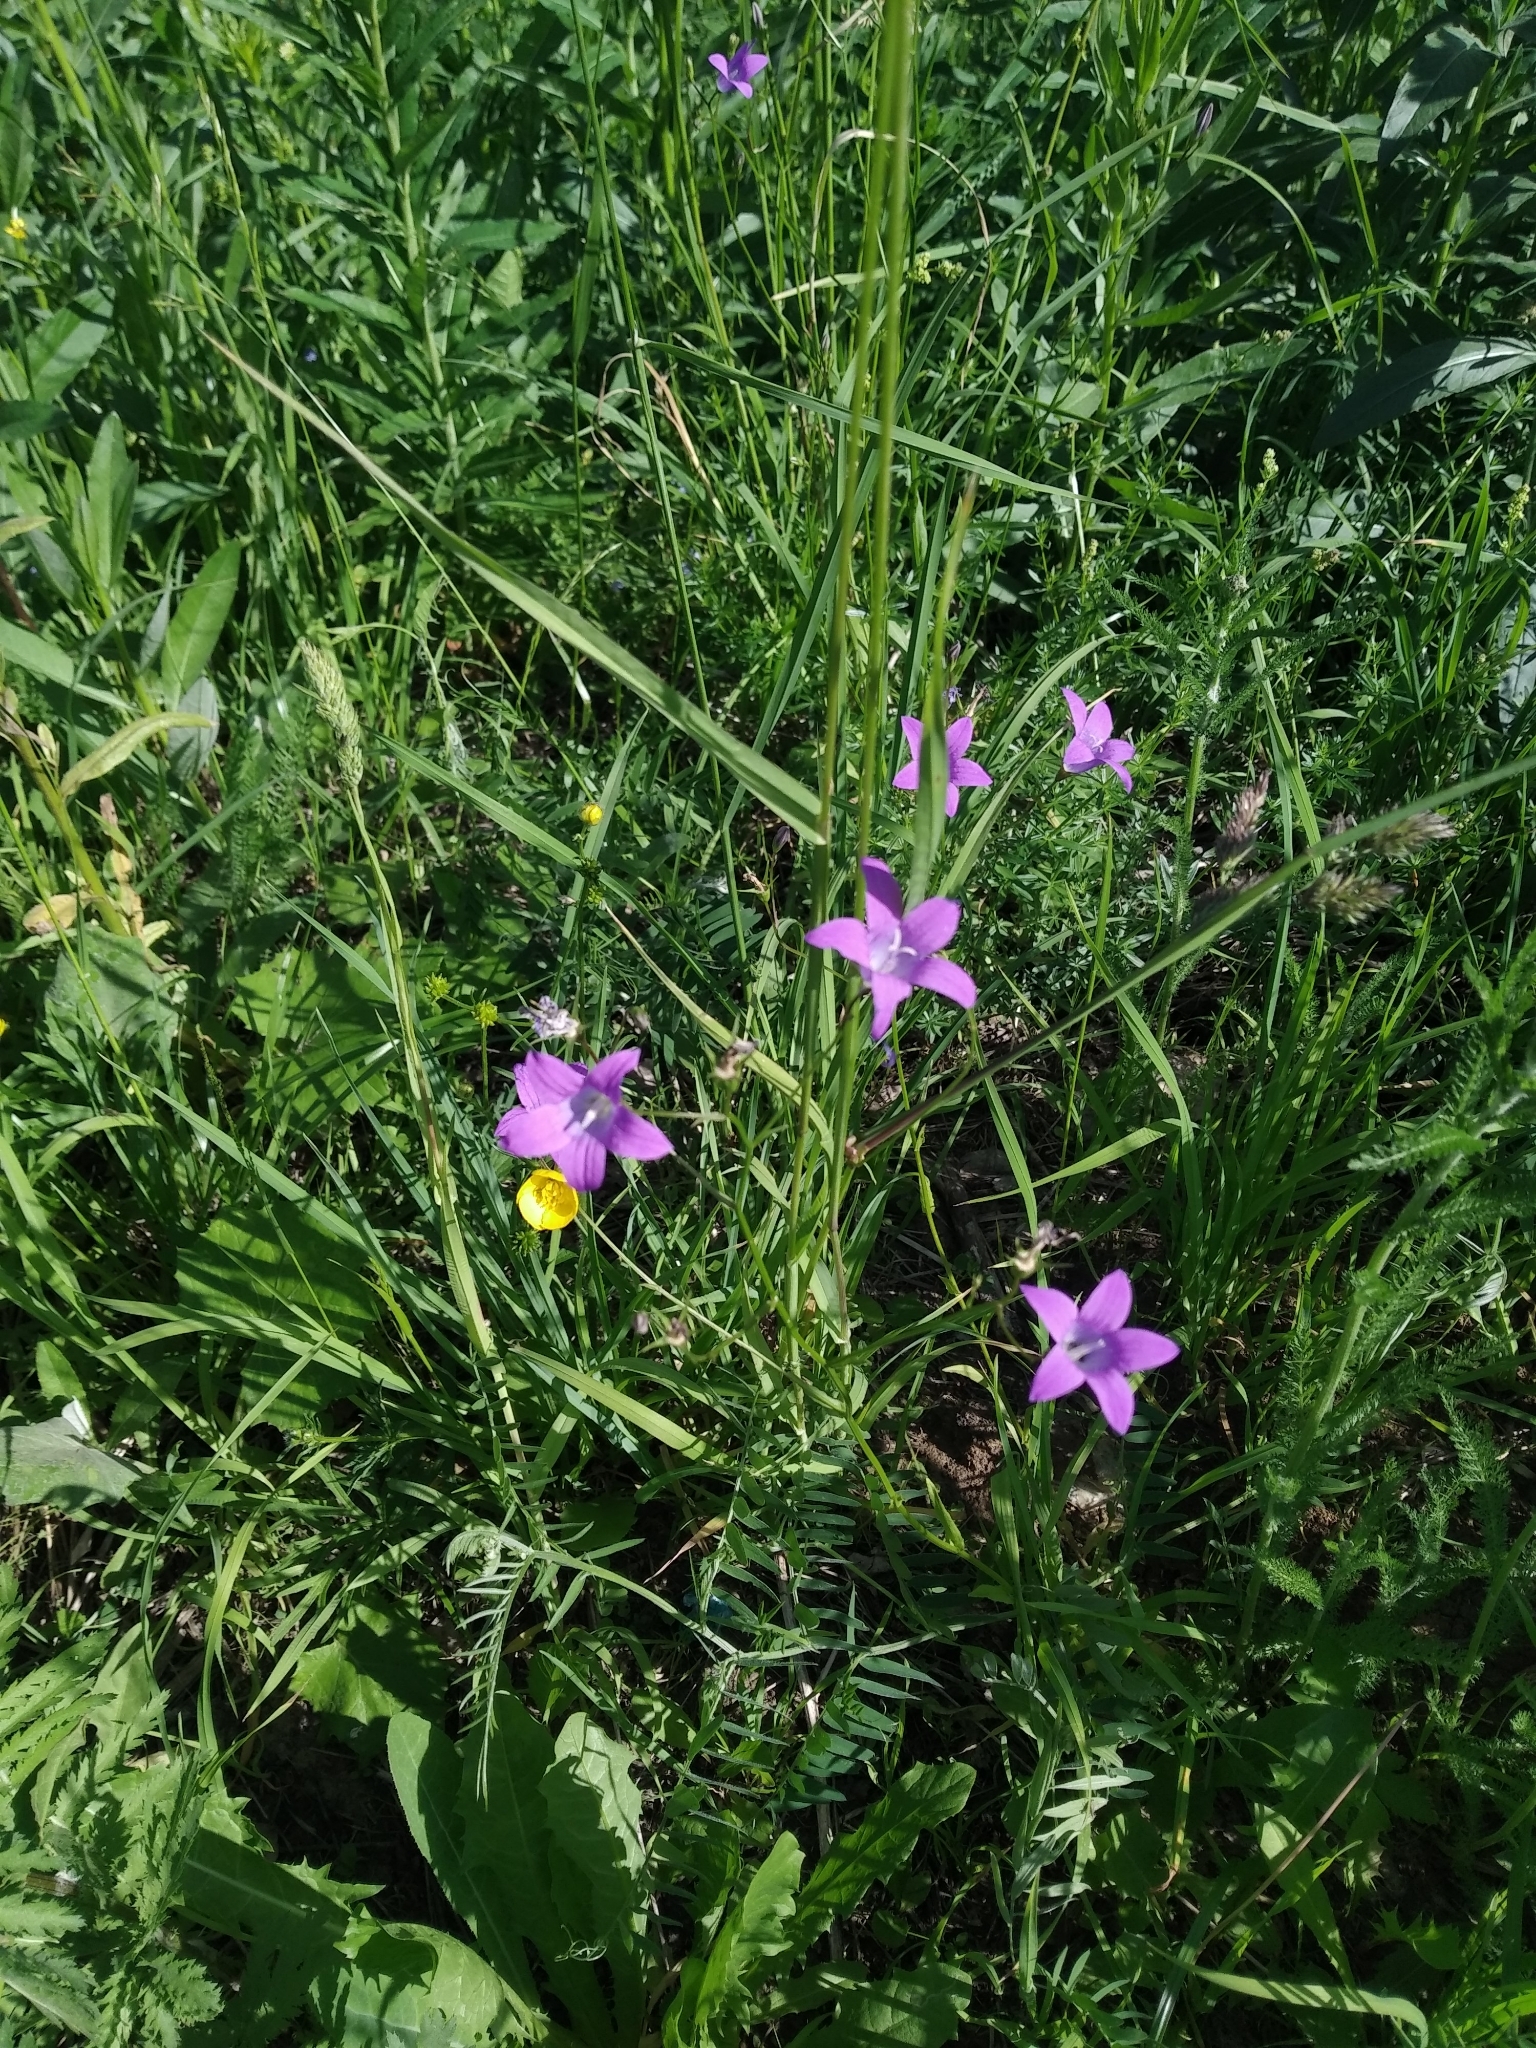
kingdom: Plantae
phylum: Tracheophyta
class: Magnoliopsida
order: Asterales
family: Campanulaceae
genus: Campanula
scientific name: Campanula patula
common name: Spreading bellflower
